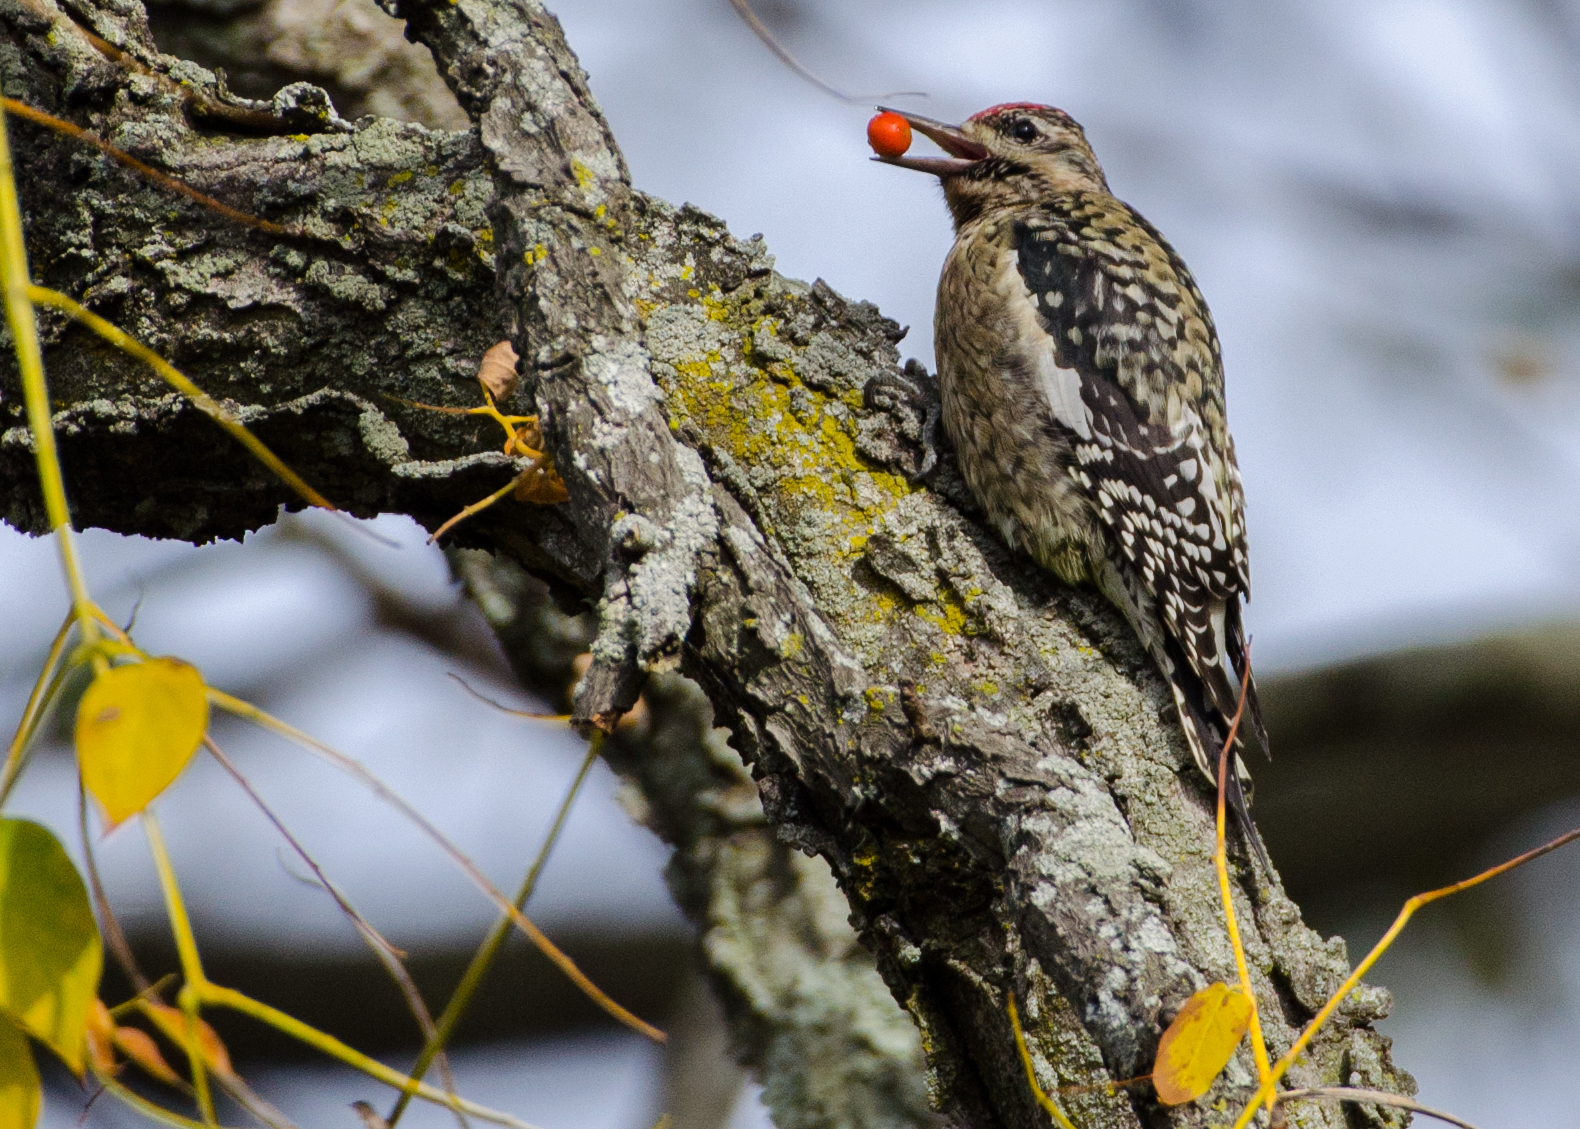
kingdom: Animalia
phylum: Chordata
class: Aves
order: Piciformes
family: Picidae
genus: Sphyrapicus
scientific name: Sphyrapicus varius
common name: Yellow-bellied sapsucker
